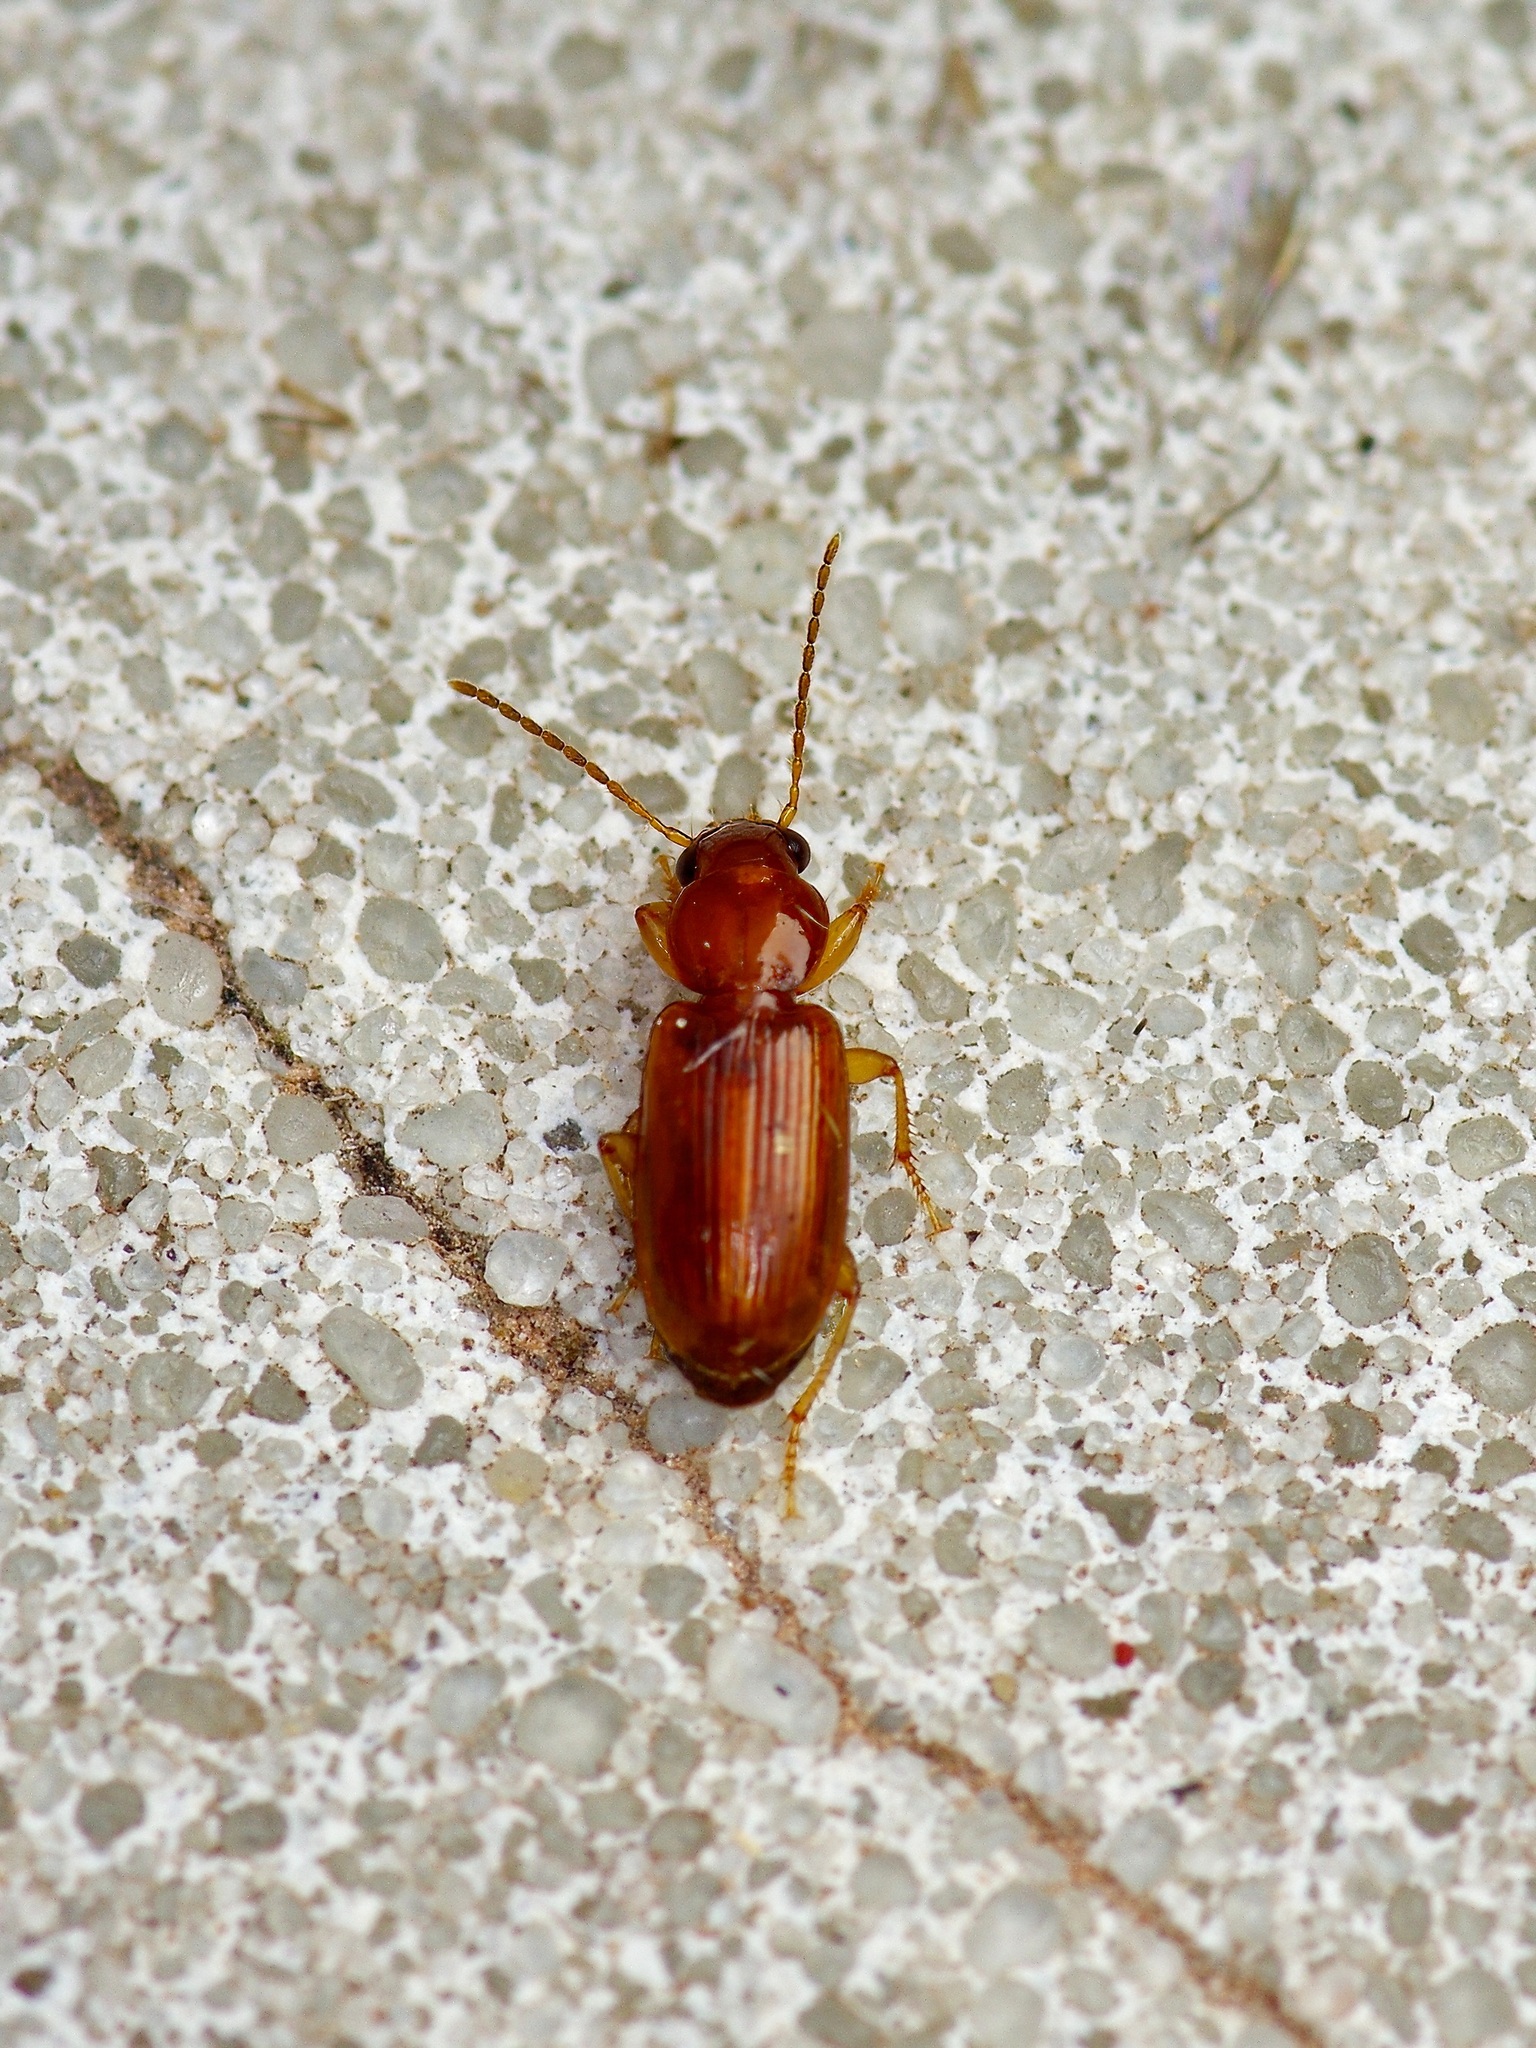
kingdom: Animalia
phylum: Arthropoda
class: Insecta
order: Coleoptera
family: Carabidae
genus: Acupalpus
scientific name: Acupalpus testaceus
